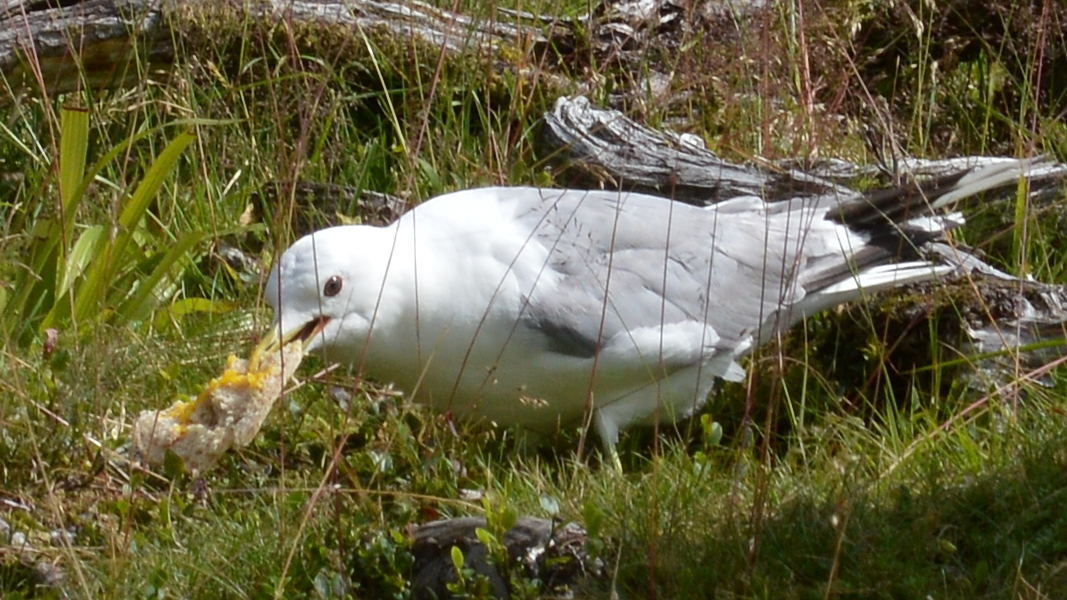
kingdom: Animalia
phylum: Chordata
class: Aves
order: Charadriiformes
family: Laridae
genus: Larus
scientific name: Larus canus
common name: Mew gull
